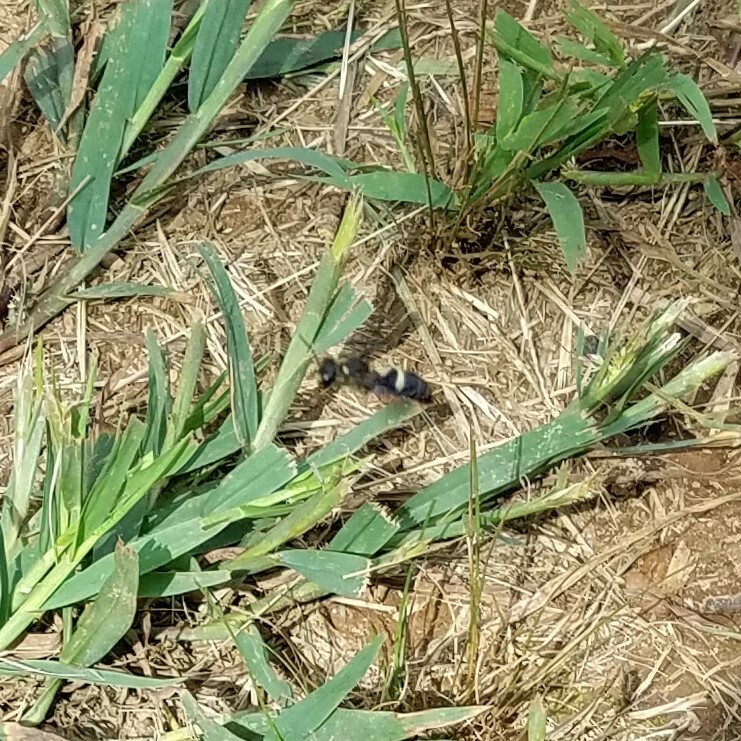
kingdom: Animalia
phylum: Arthropoda
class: Insecta
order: Hymenoptera
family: Crabronidae
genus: Cerceris
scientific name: Cerceris fumipennis
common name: Smokey-winged beetle bandit wasp
